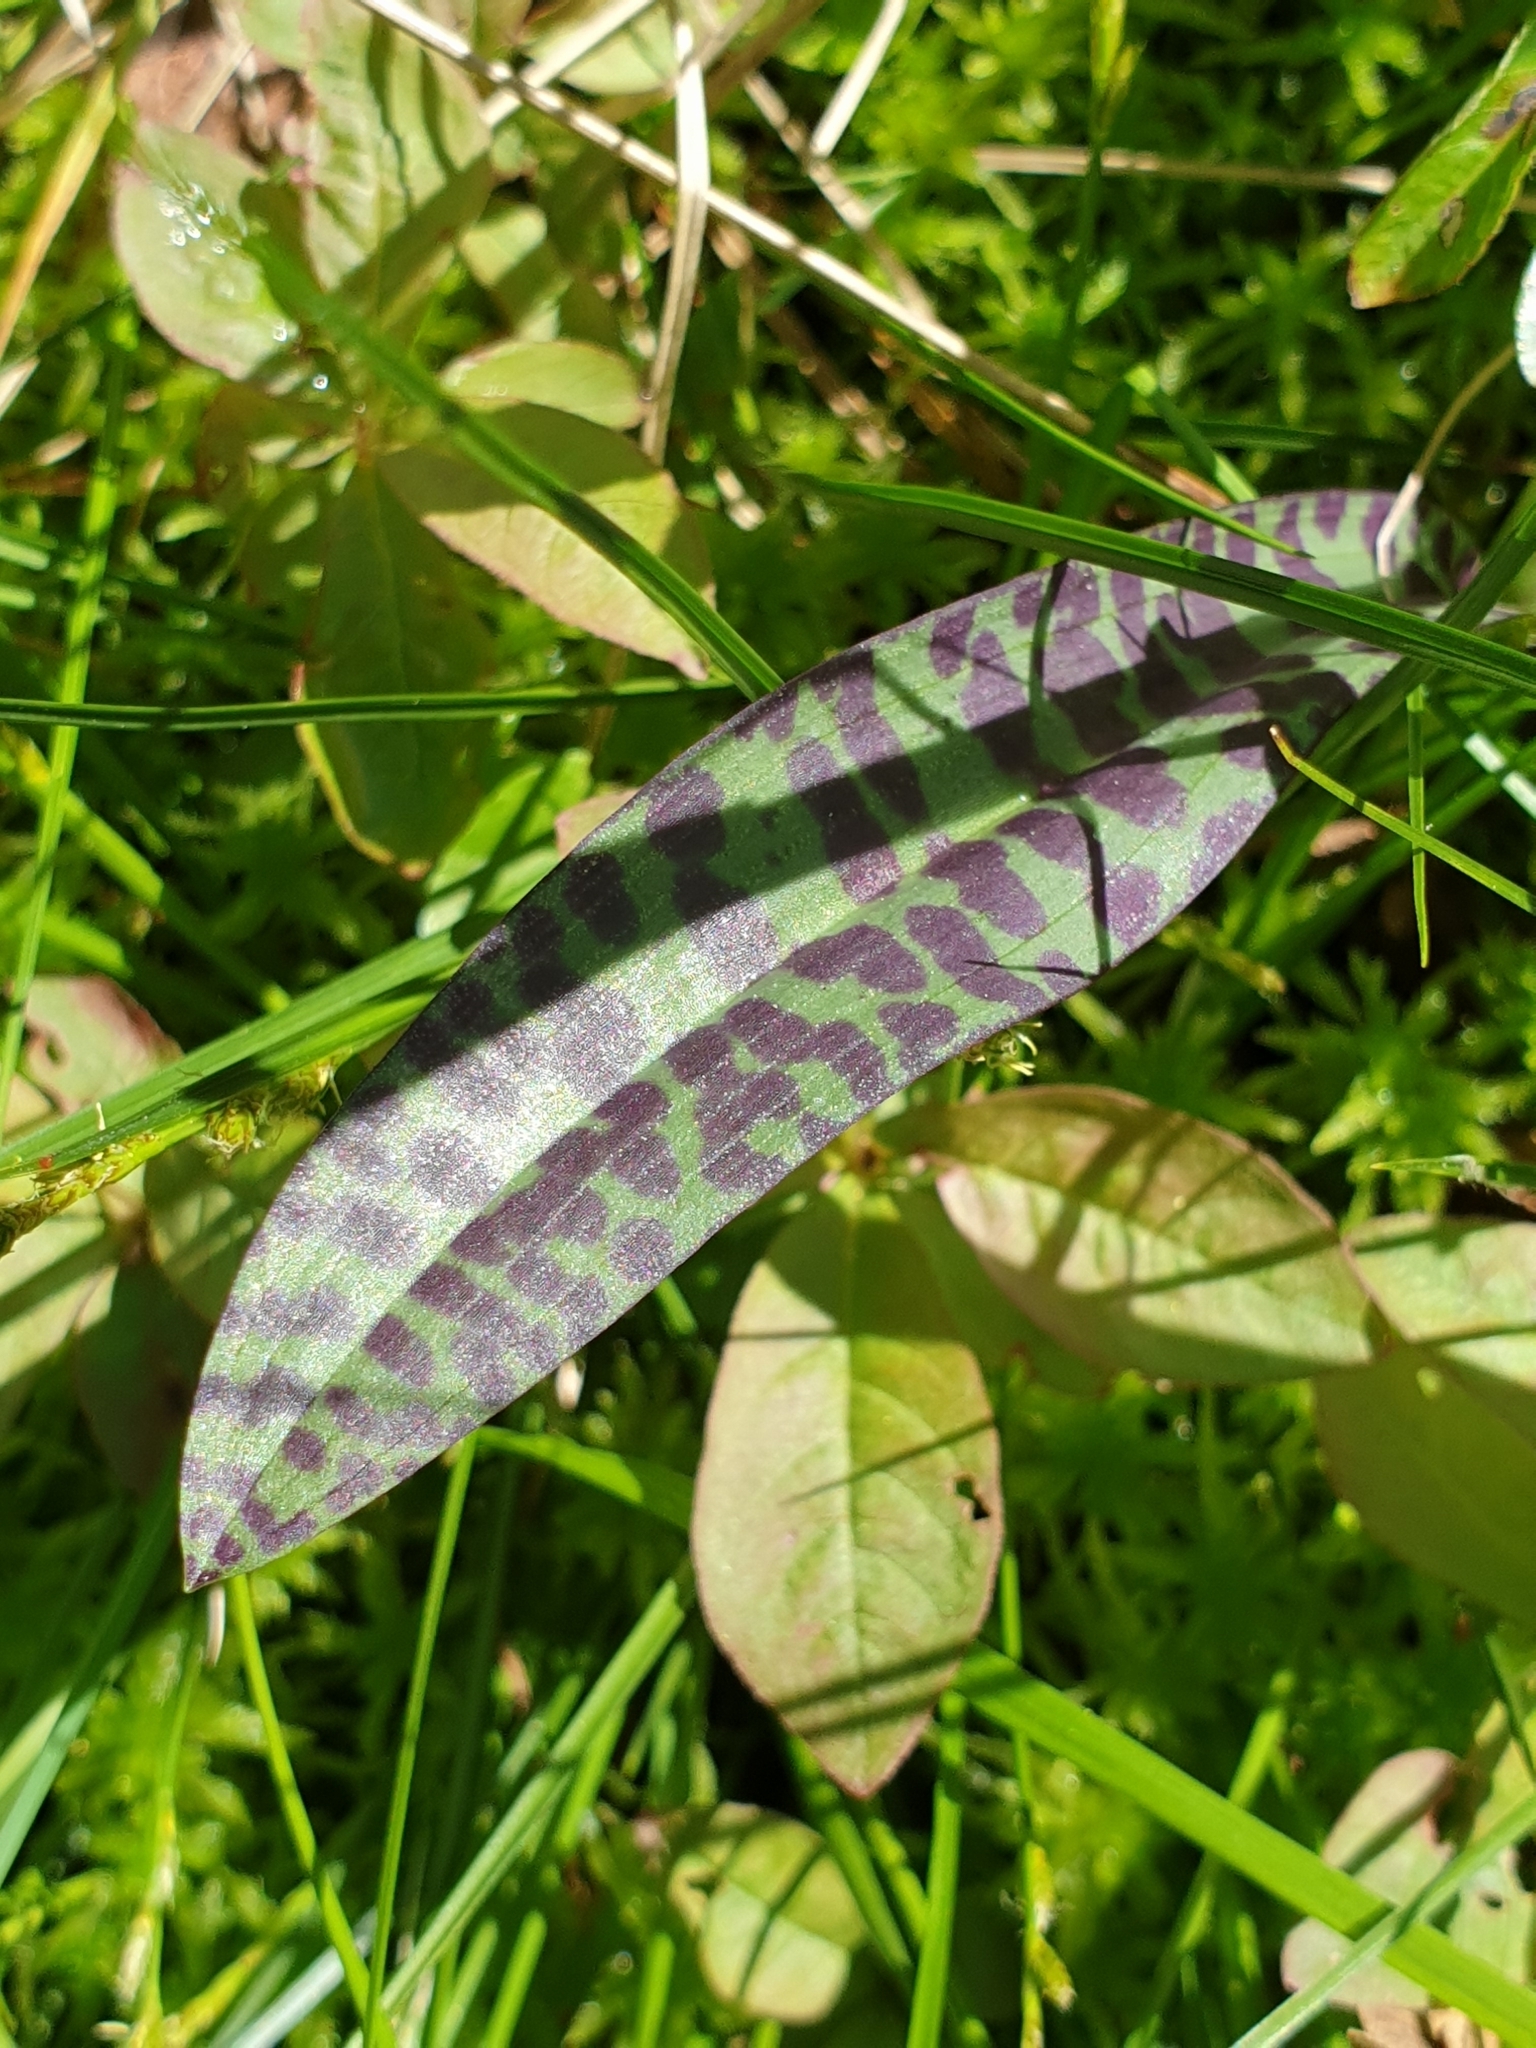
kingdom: Plantae
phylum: Tracheophyta
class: Liliopsida
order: Asparagales
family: Orchidaceae
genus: Dactylorhiza
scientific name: Dactylorhiza maculata
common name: Heath spotted-orchid
